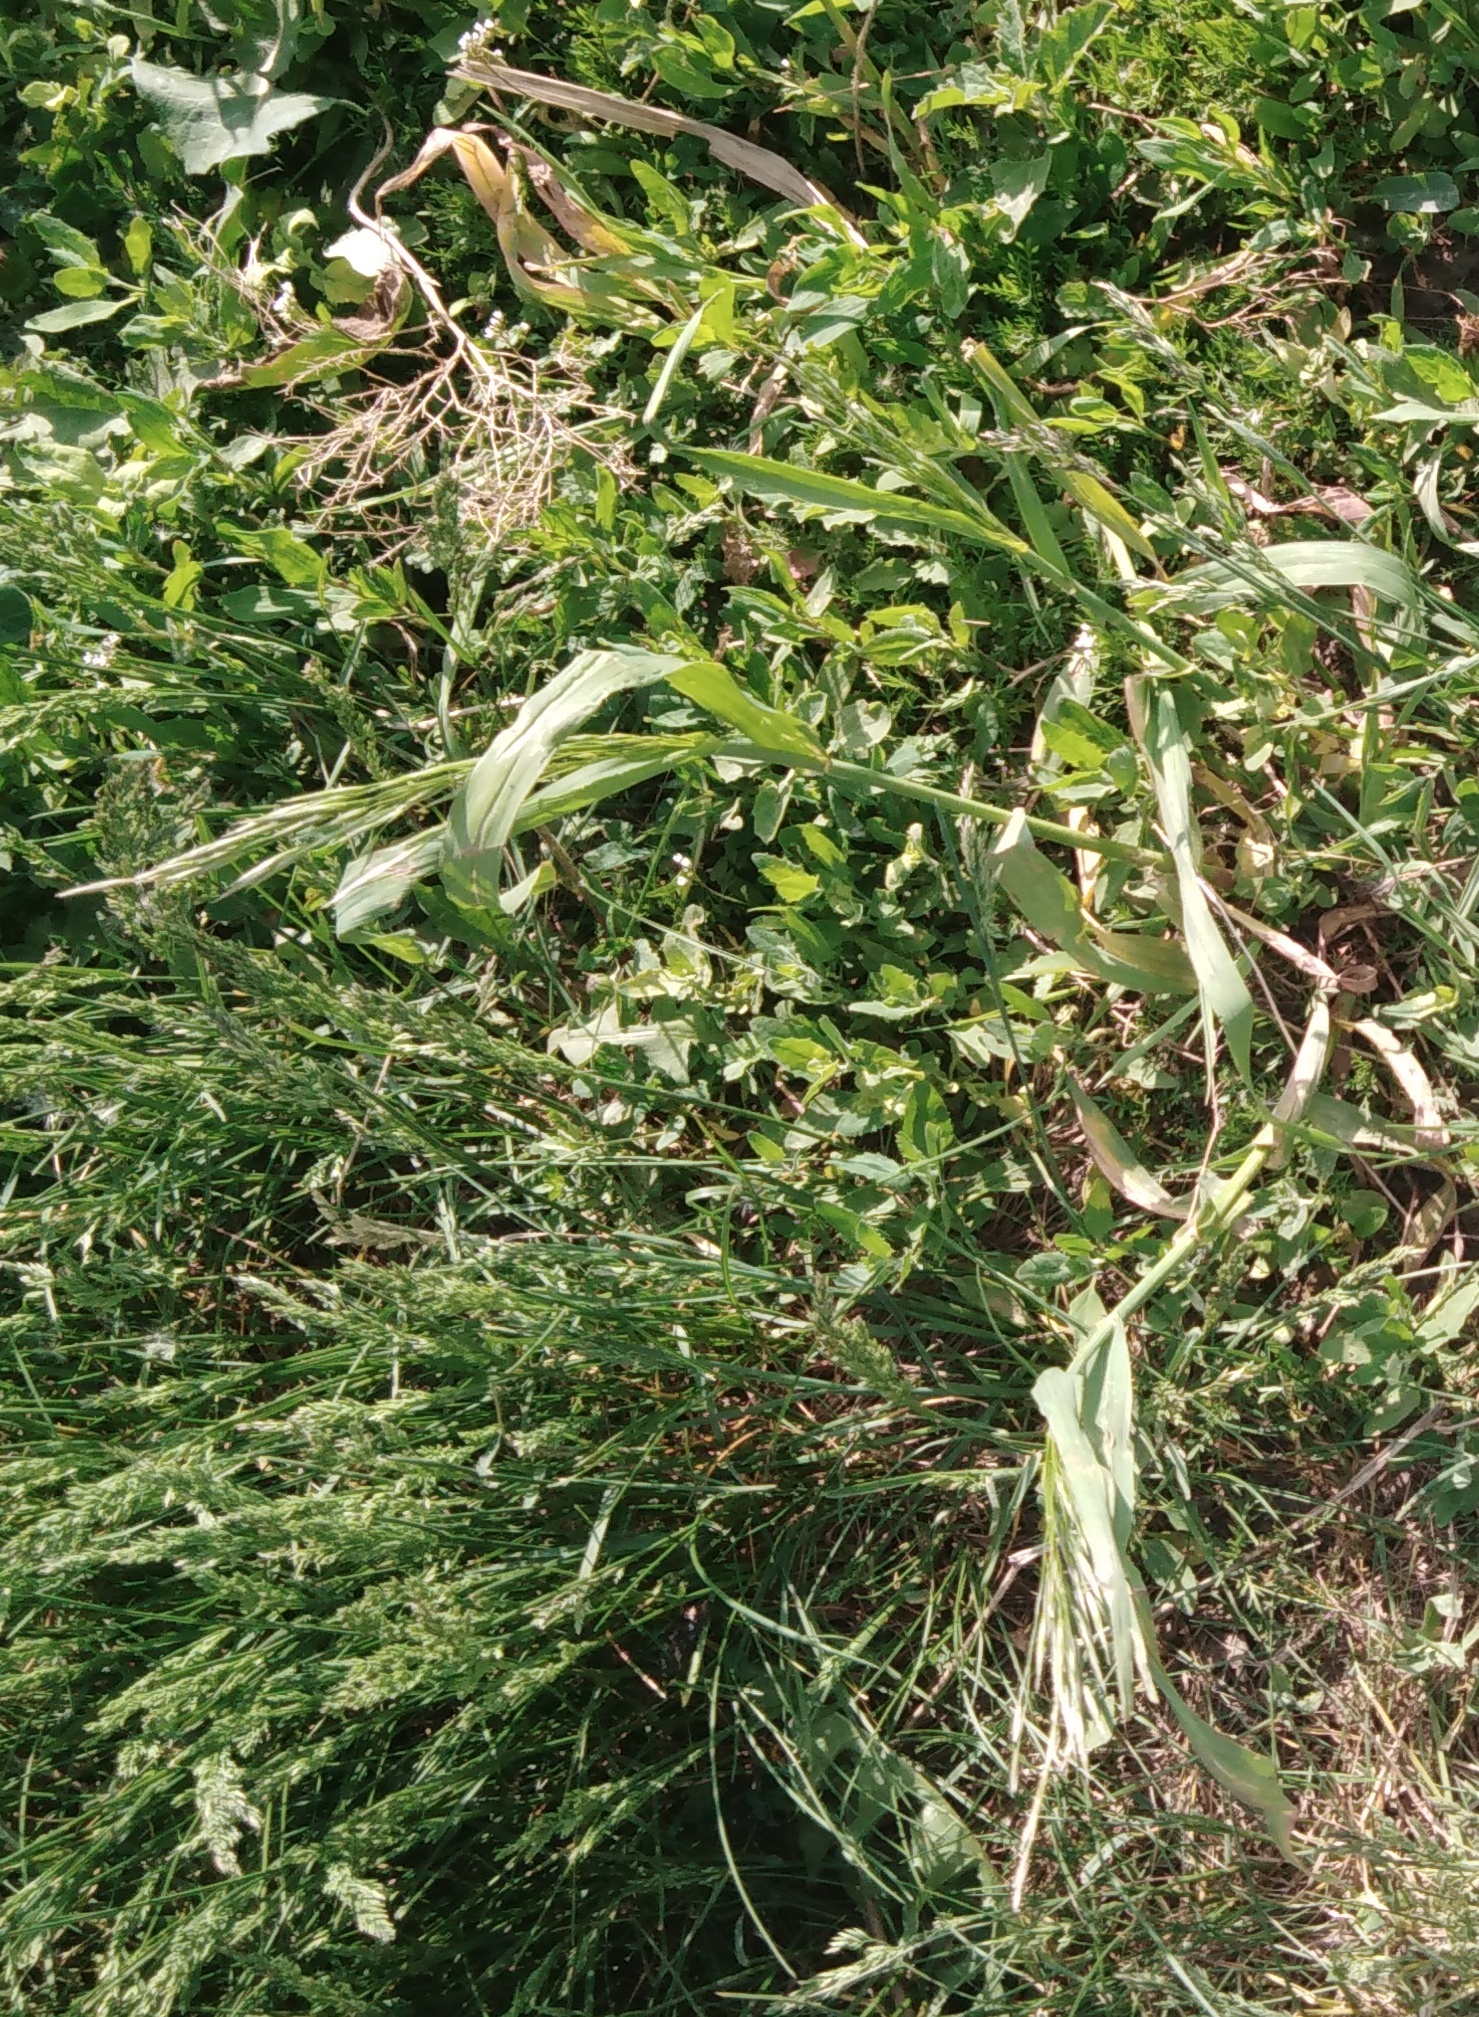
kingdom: Plantae
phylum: Tracheophyta
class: Liliopsida
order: Poales
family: Poaceae
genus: Bromus
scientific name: Bromus inermis
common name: Smooth brome
